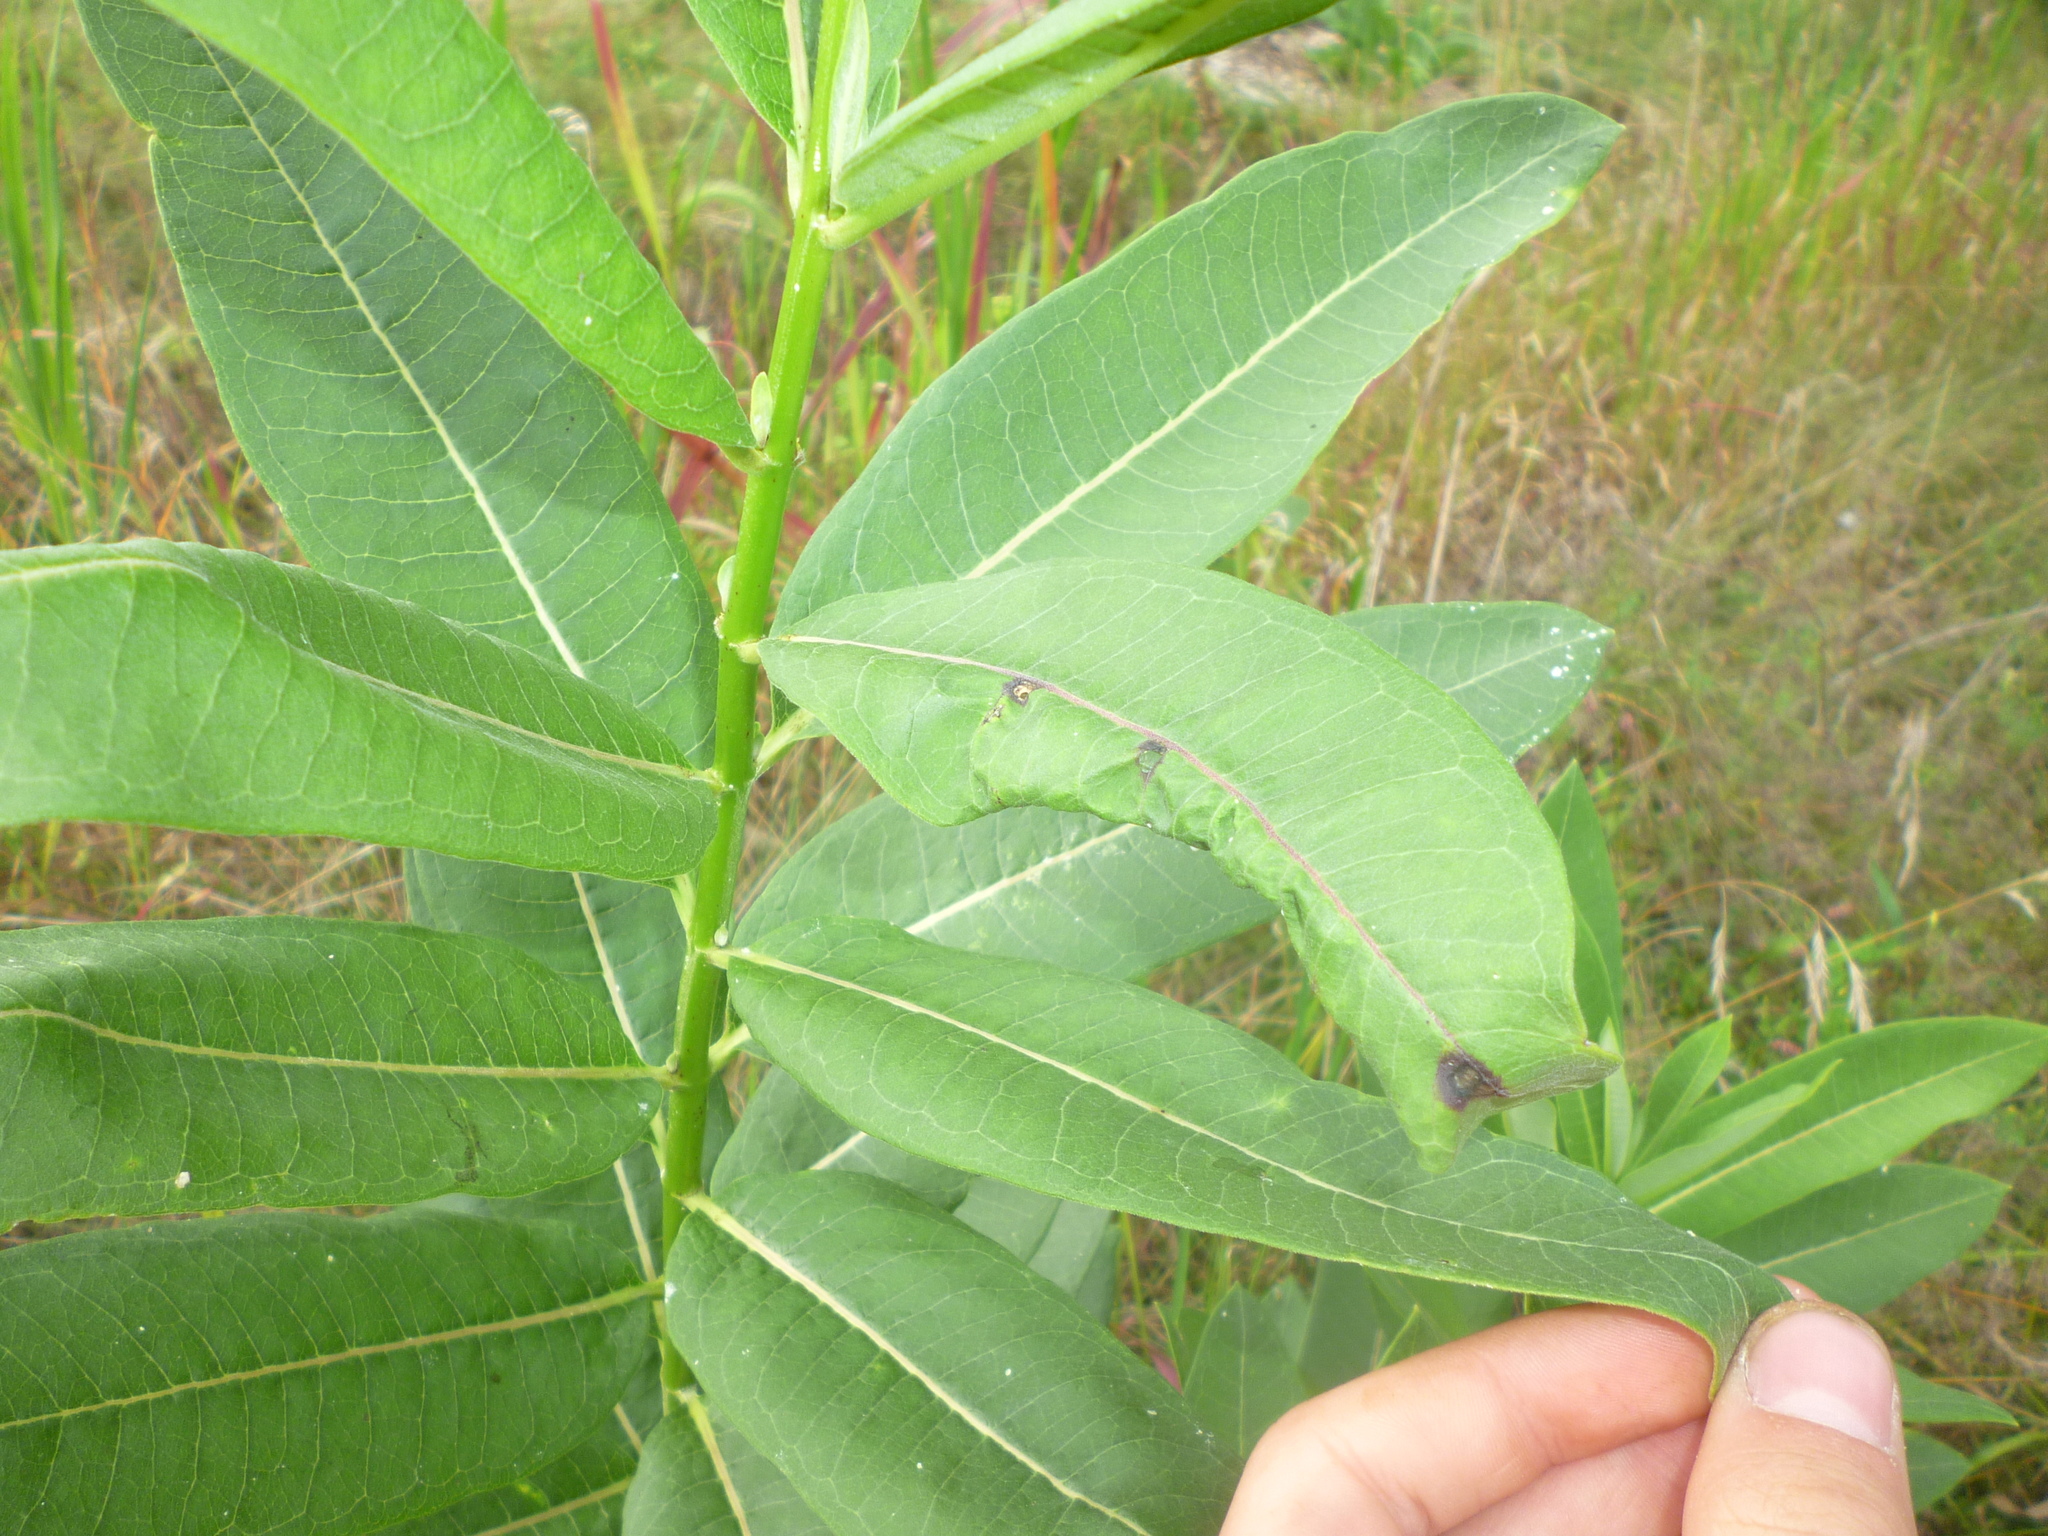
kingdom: Plantae
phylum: Tracheophyta
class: Magnoliopsida
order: Gentianales
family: Apocynaceae
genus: Asclepias
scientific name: Asclepias syriaca
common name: Common milkweed
